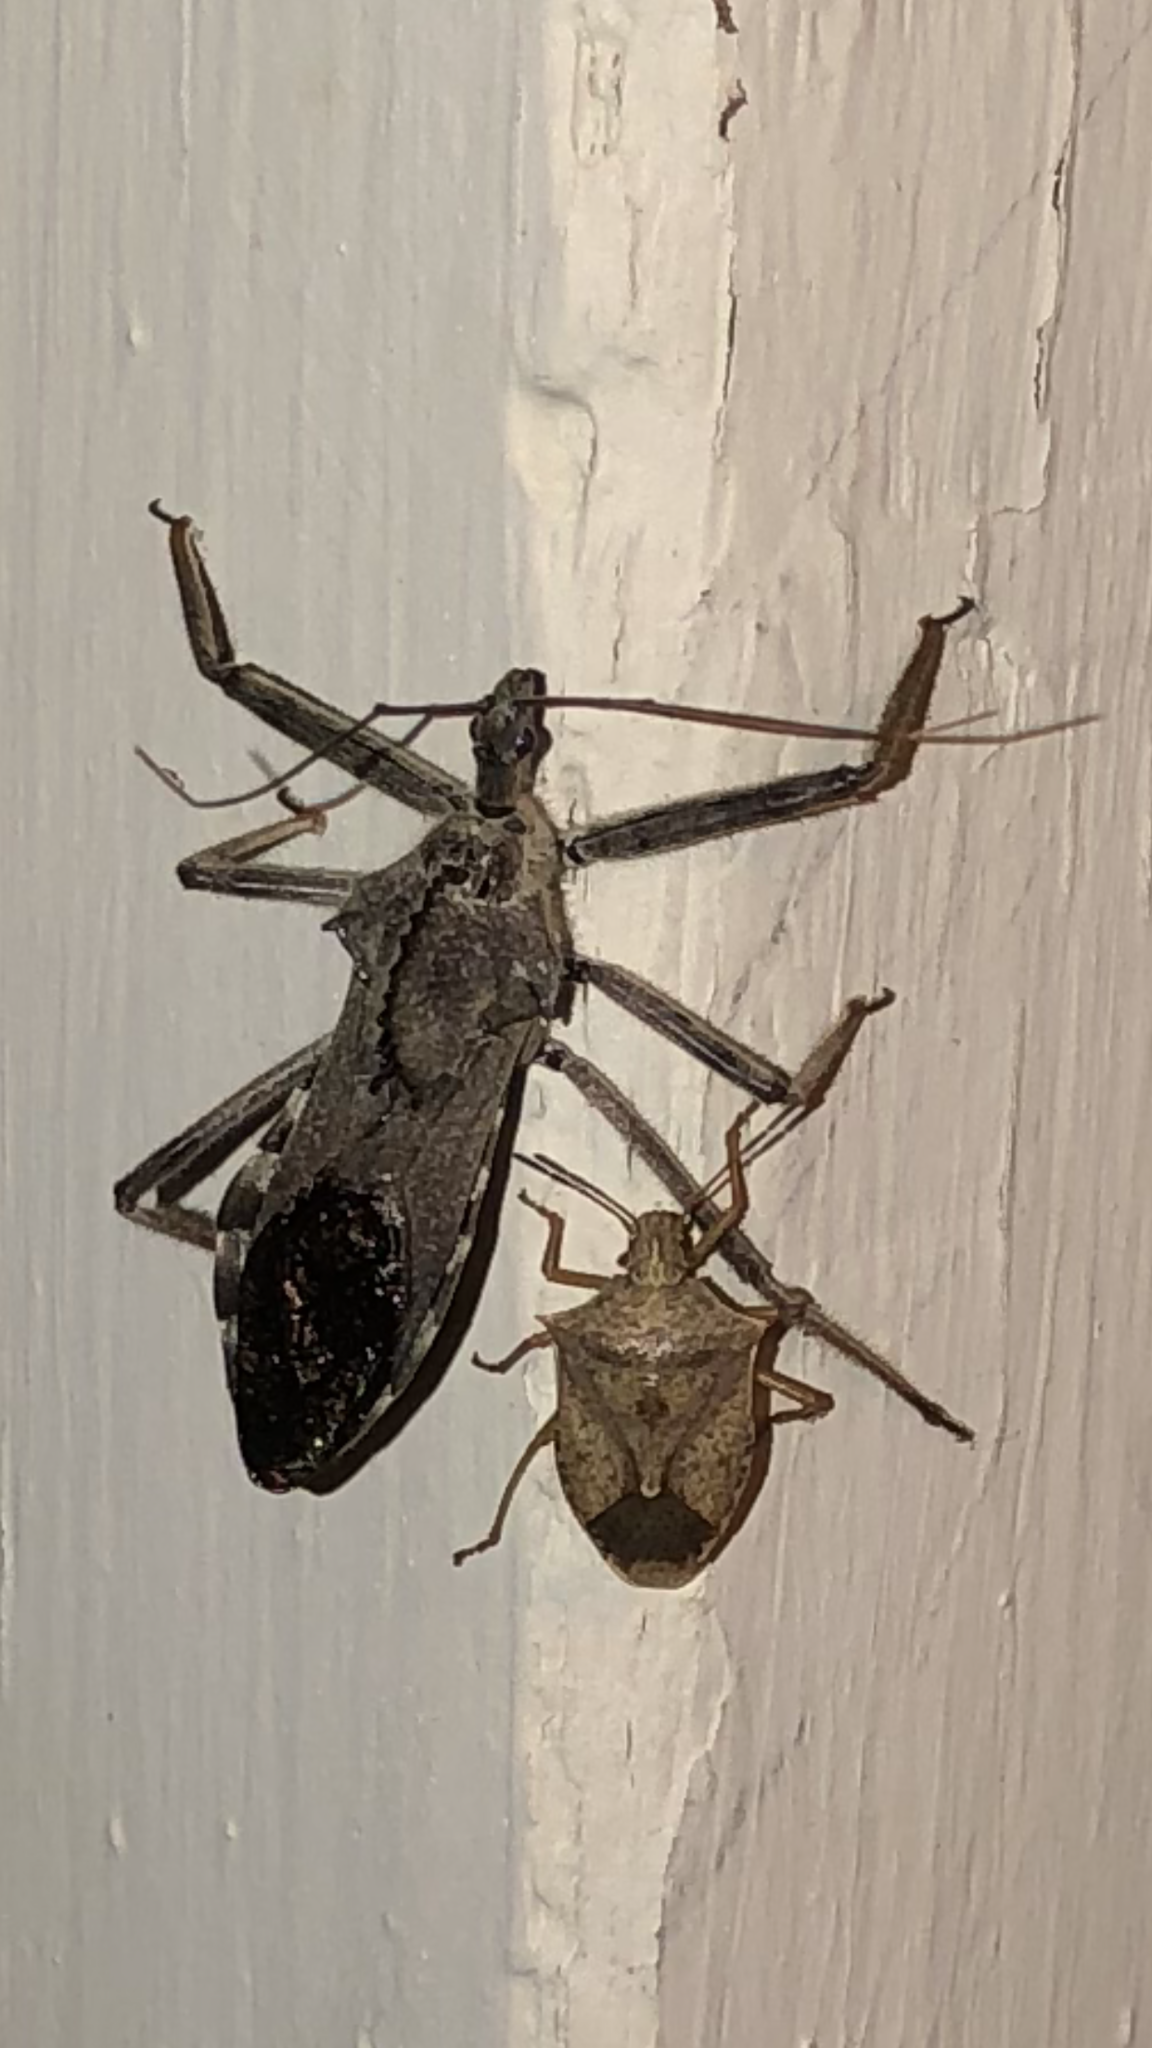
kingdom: Animalia
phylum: Arthropoda
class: Insecta
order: Hemiptera
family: Reduviidae
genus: Arilus
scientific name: Arilus cristatus
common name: North american wheel bug
